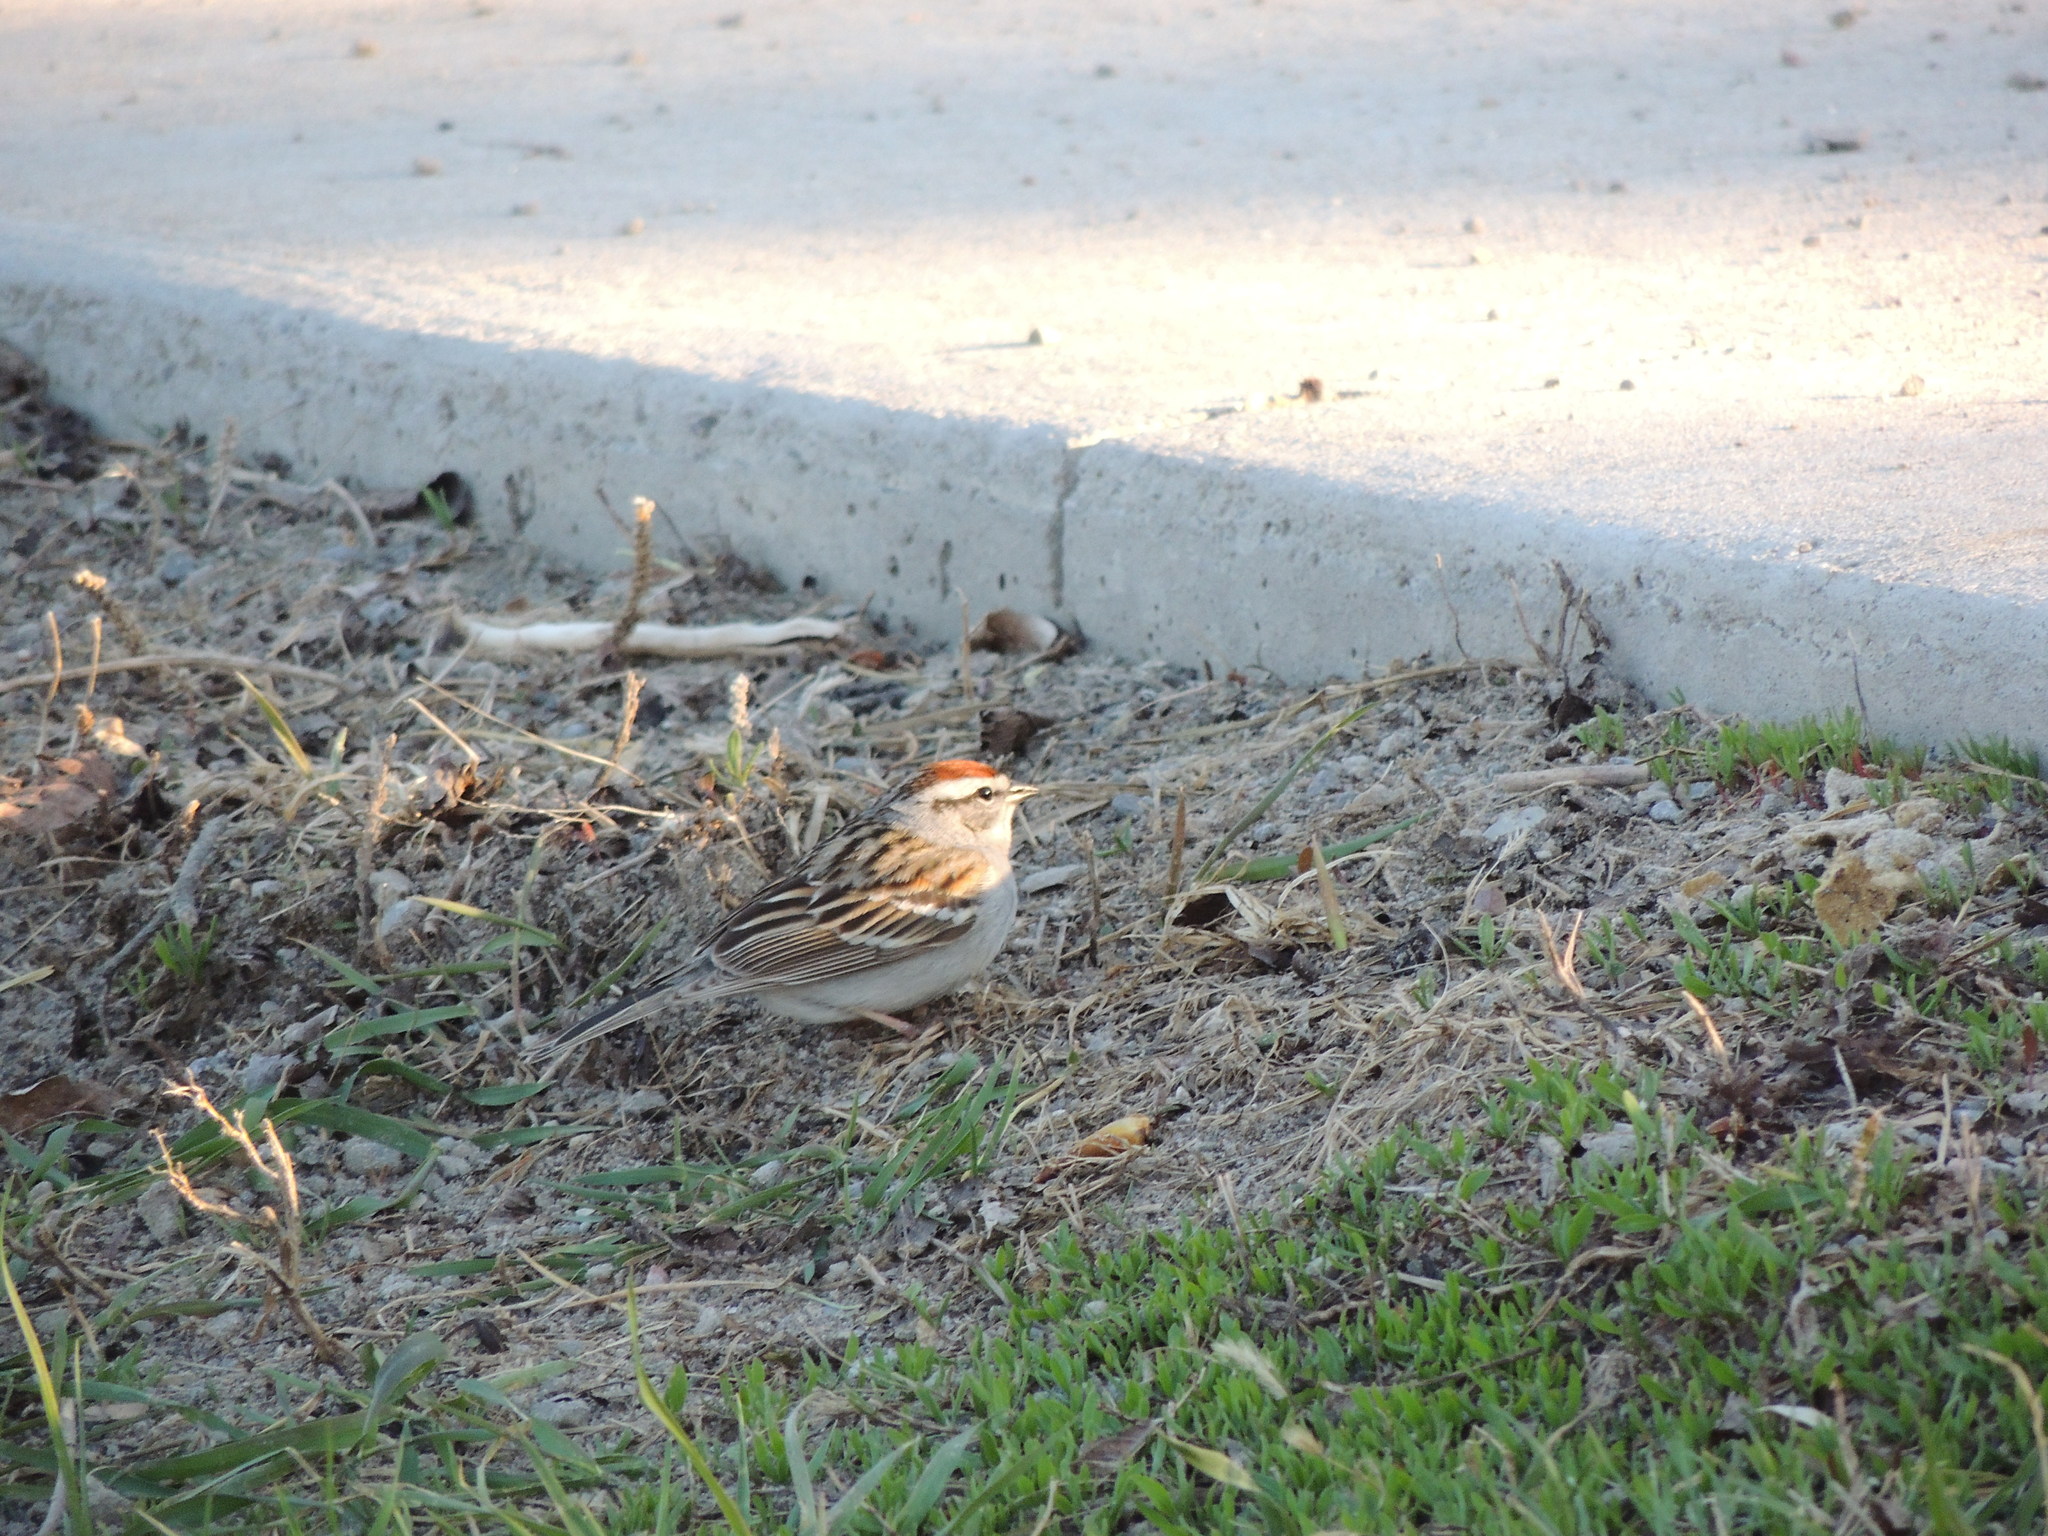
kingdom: Animalia
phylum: Chordata
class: Aves
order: Passeriformes
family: Passerellidae
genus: Spizella
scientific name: Spizella passerina
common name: Chipping sparrow
